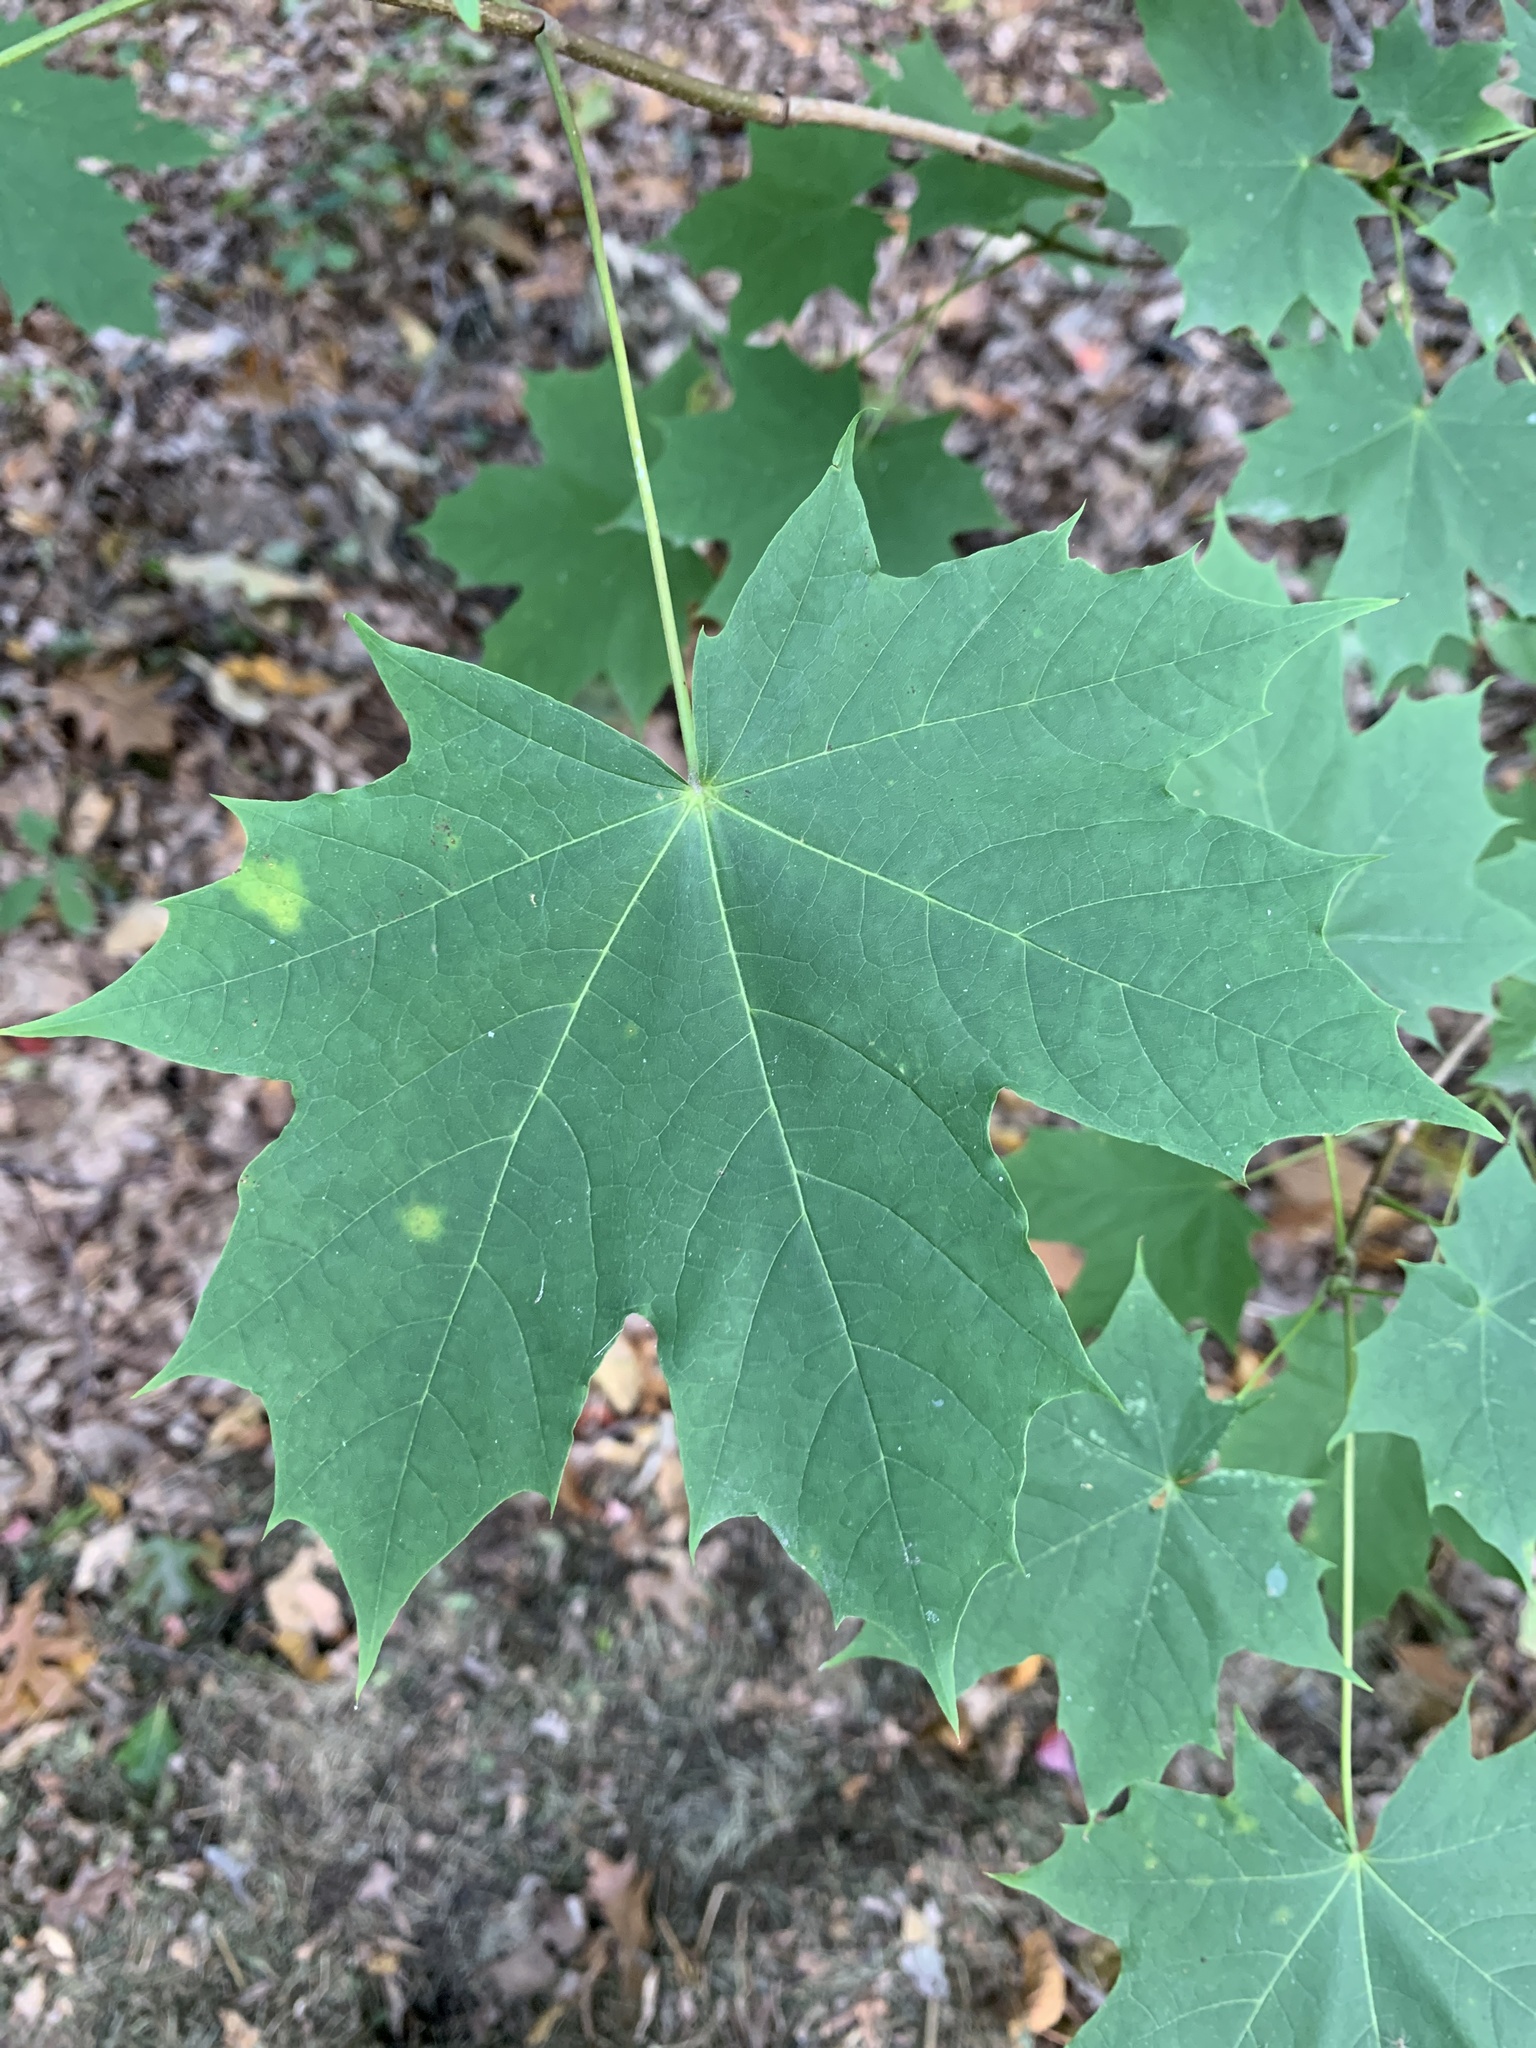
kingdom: Plantae
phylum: Tracheophyta
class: Magnoliopsida
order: Sapindales
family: Sapindaceae
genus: Acer
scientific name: Acer platanoides
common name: Norway maple
